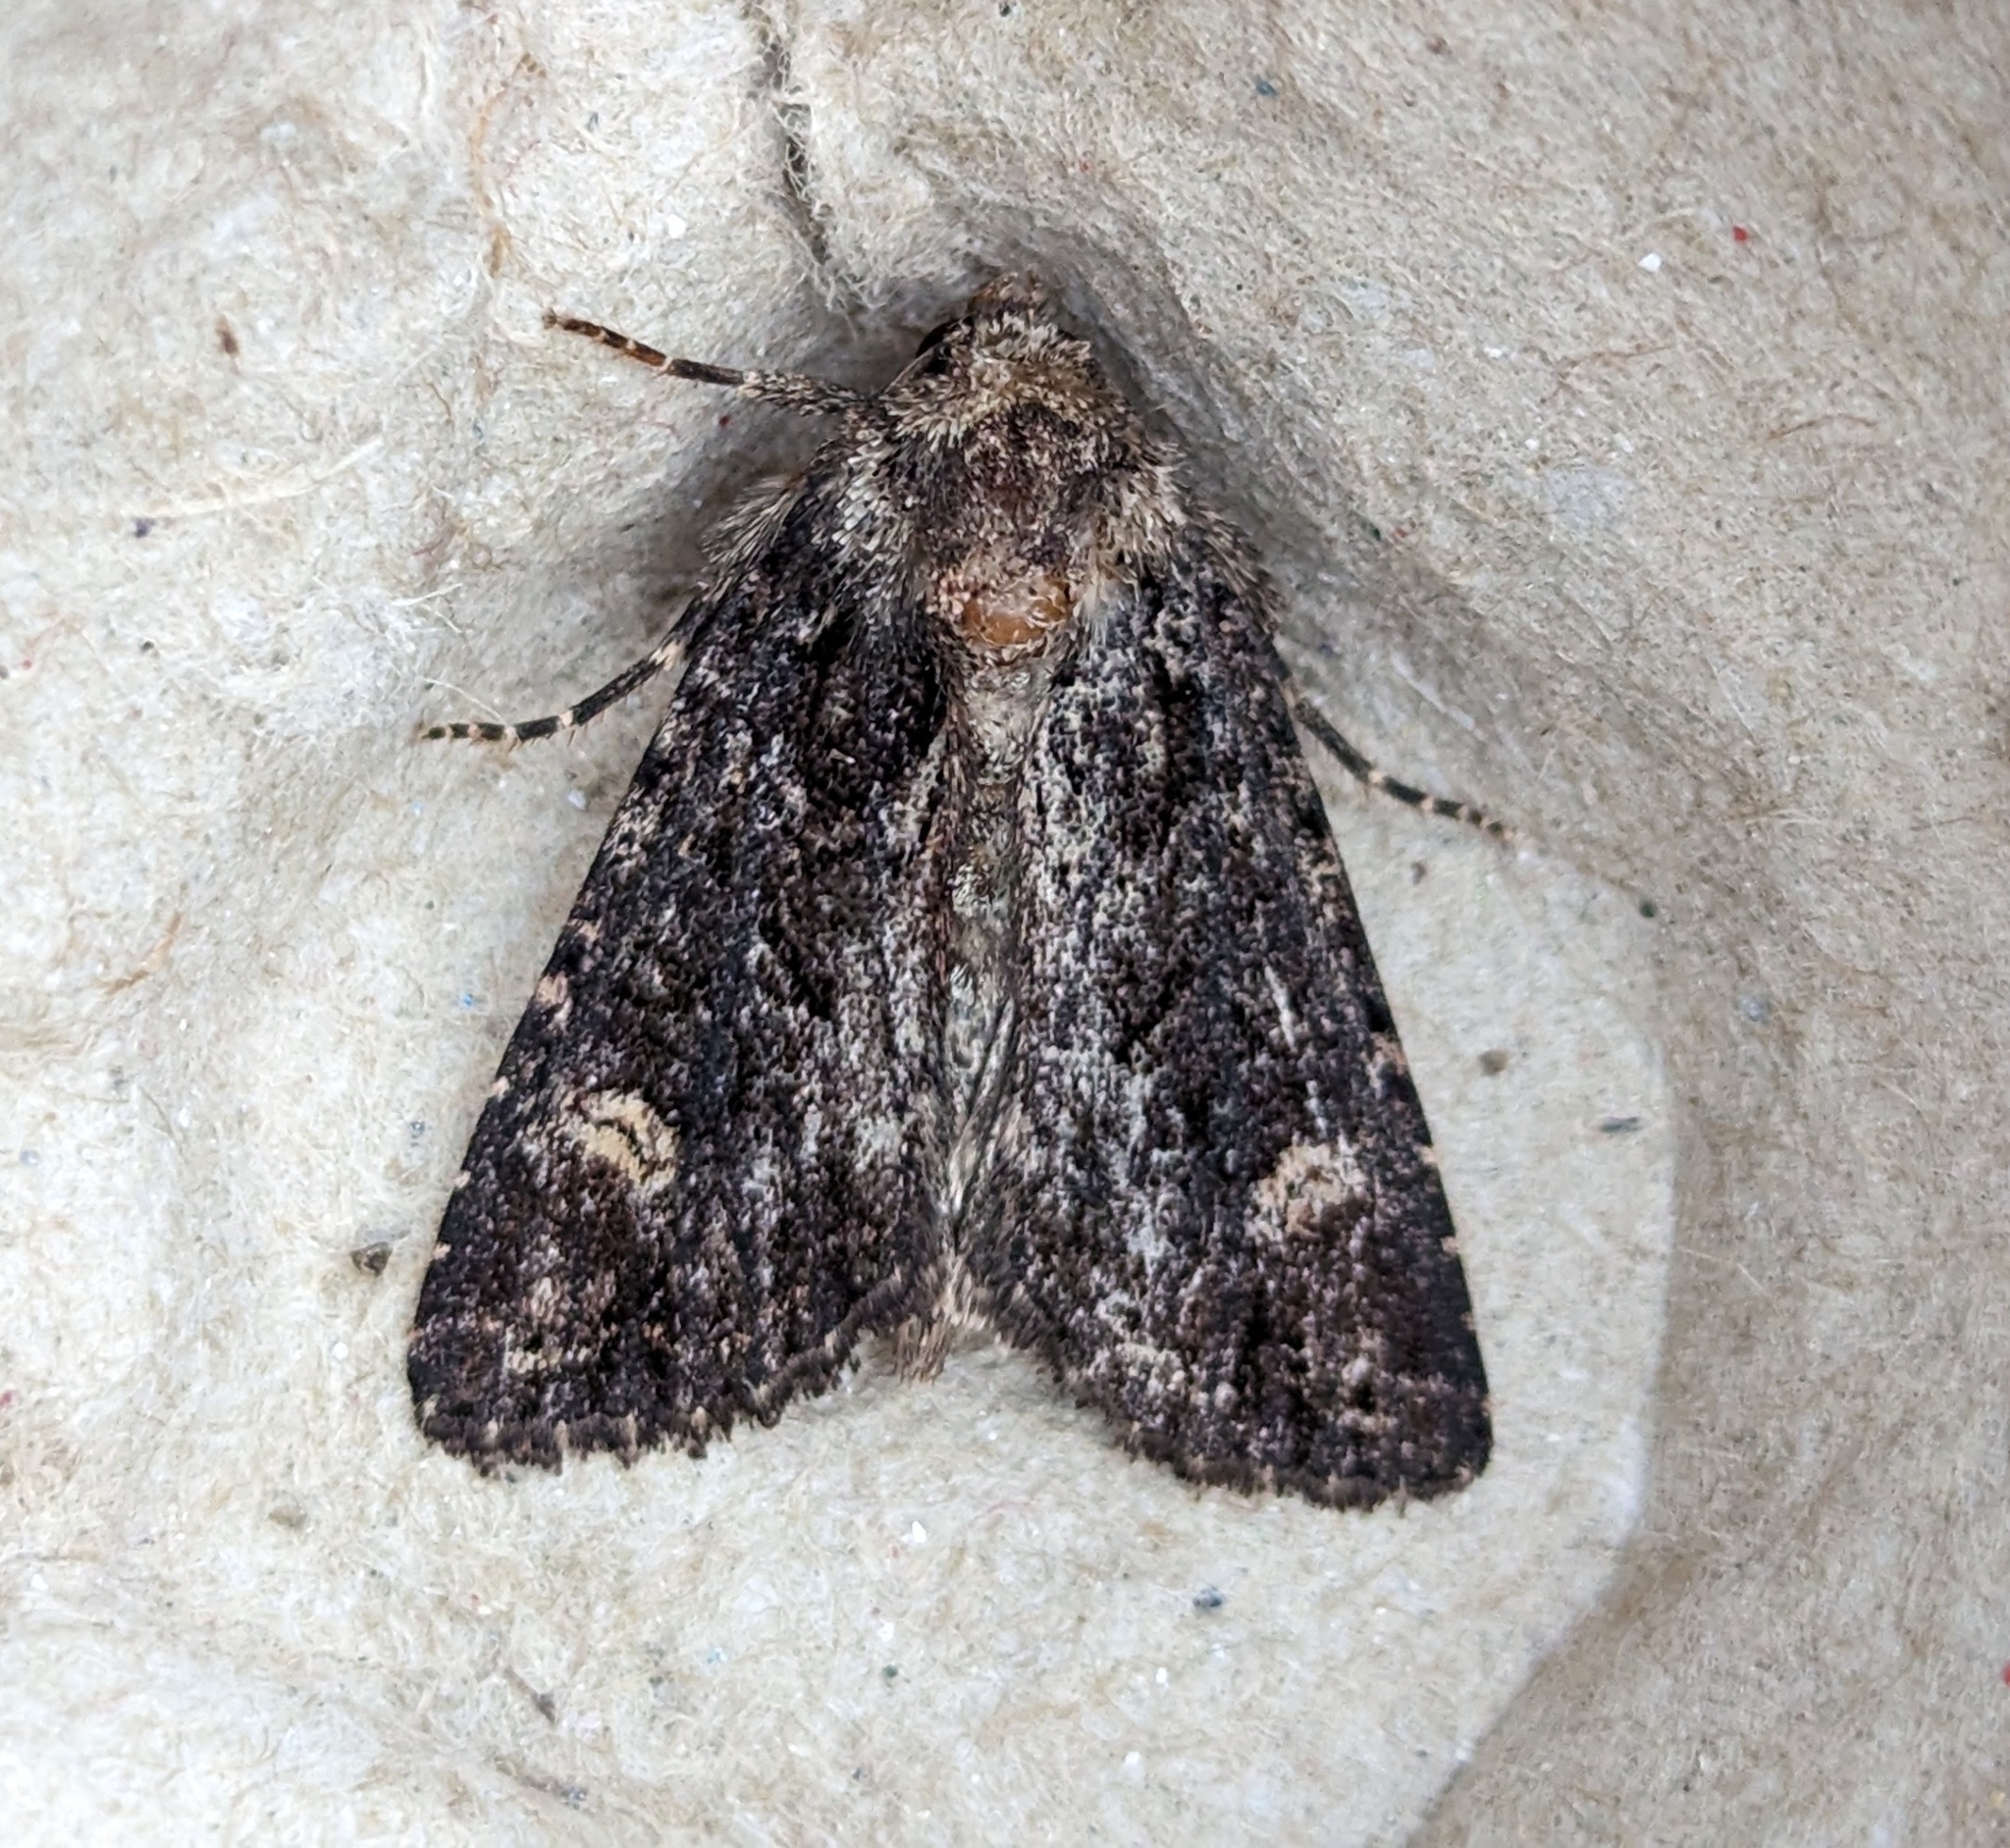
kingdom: Animalia
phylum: Arthropoda
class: Insecta
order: Lepidoptera
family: Noctuidae
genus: Aseptis
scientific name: Aseptis binotata
